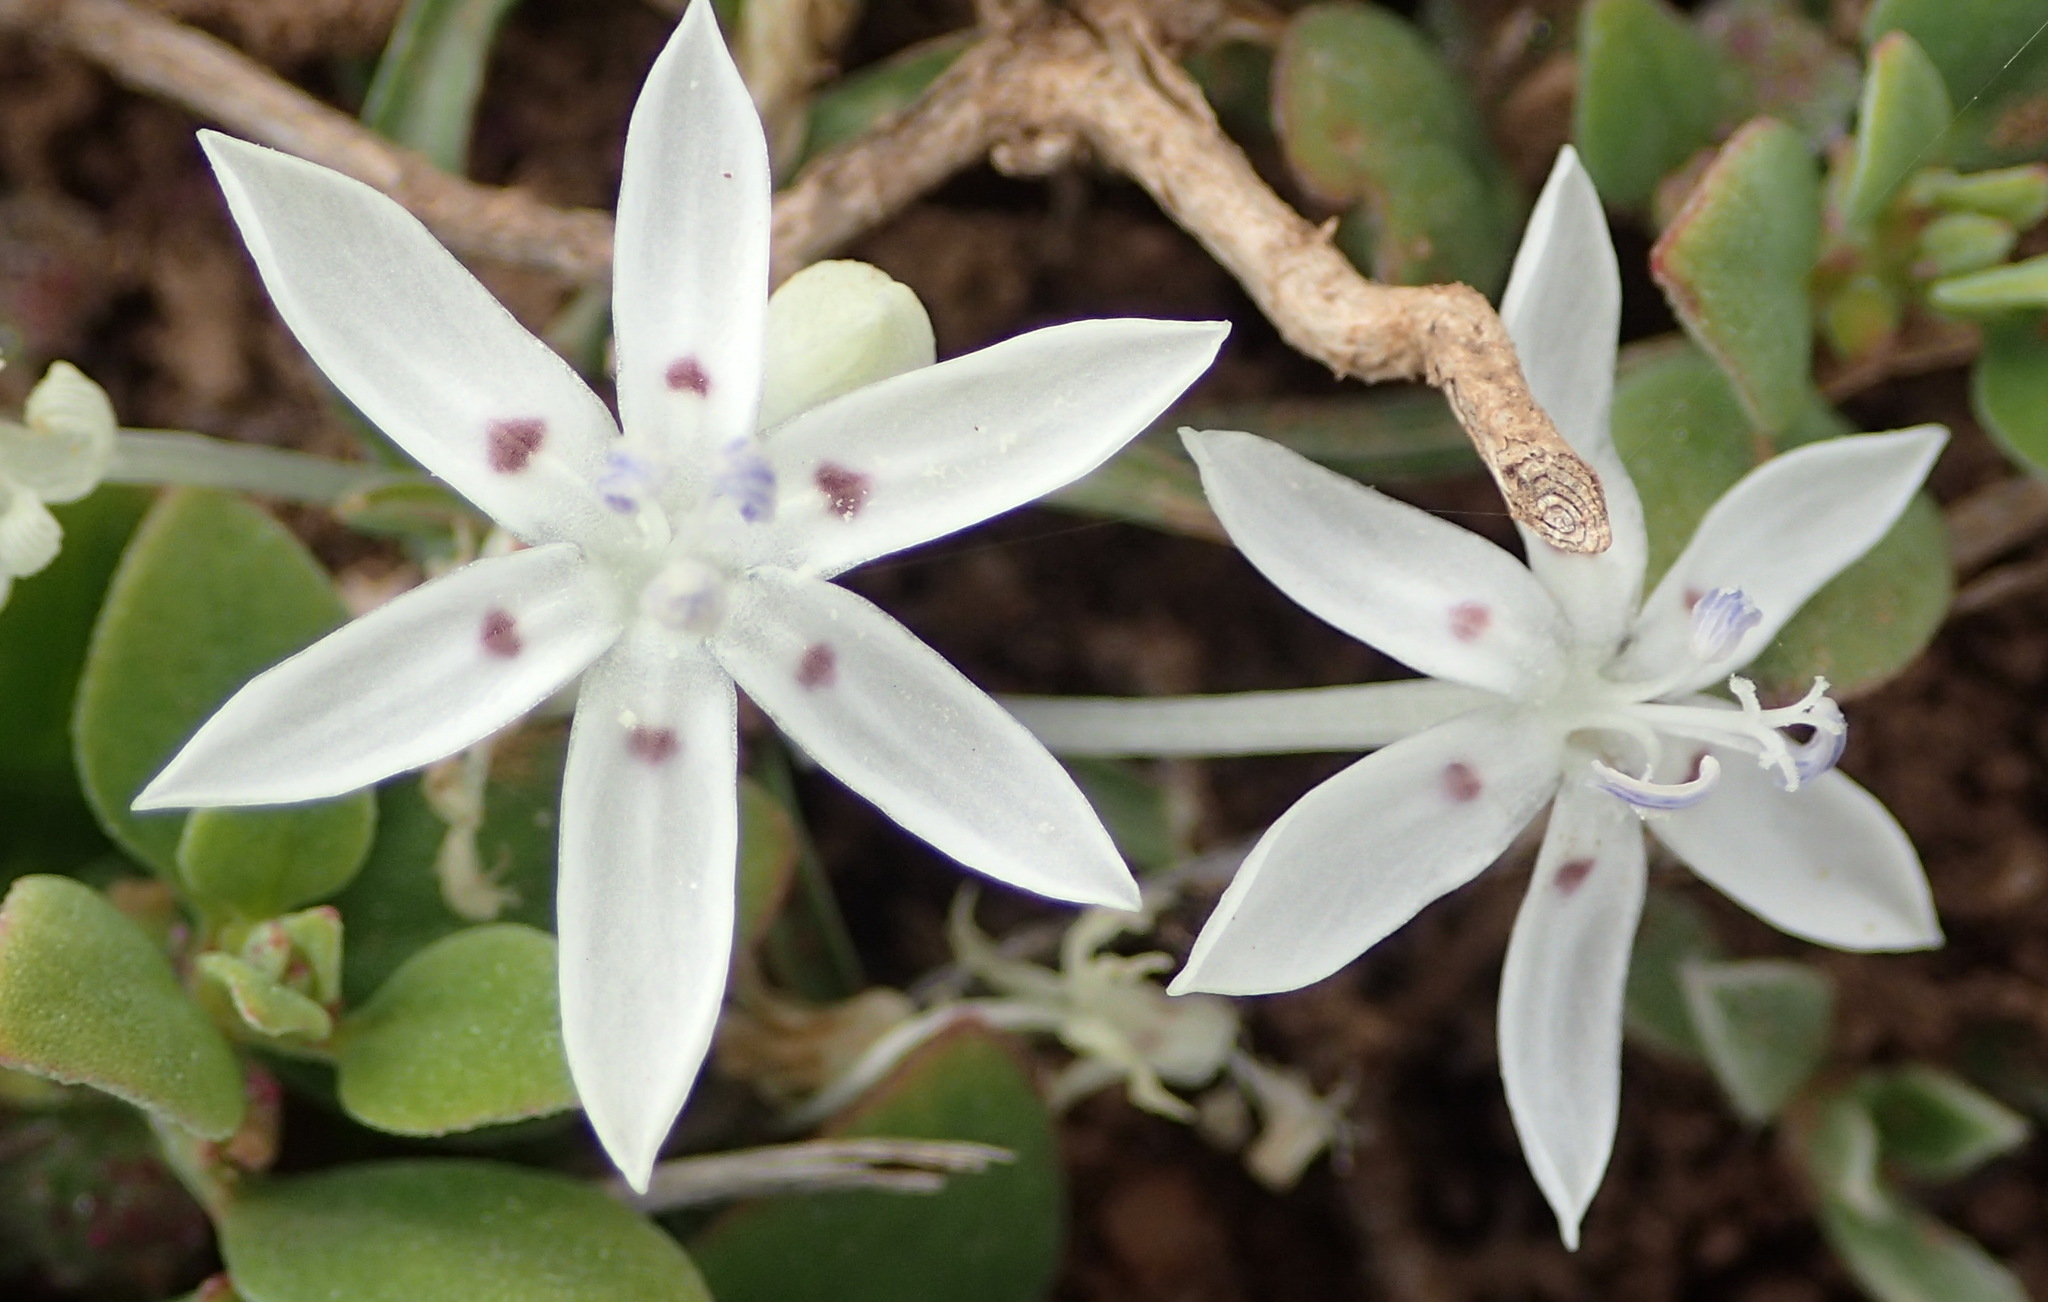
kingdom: Plantae
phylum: Tracheophyta
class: Liliopsida
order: Asparagales
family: Iridaceae
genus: Lapeirousia
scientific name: Lapeirousia plicata
